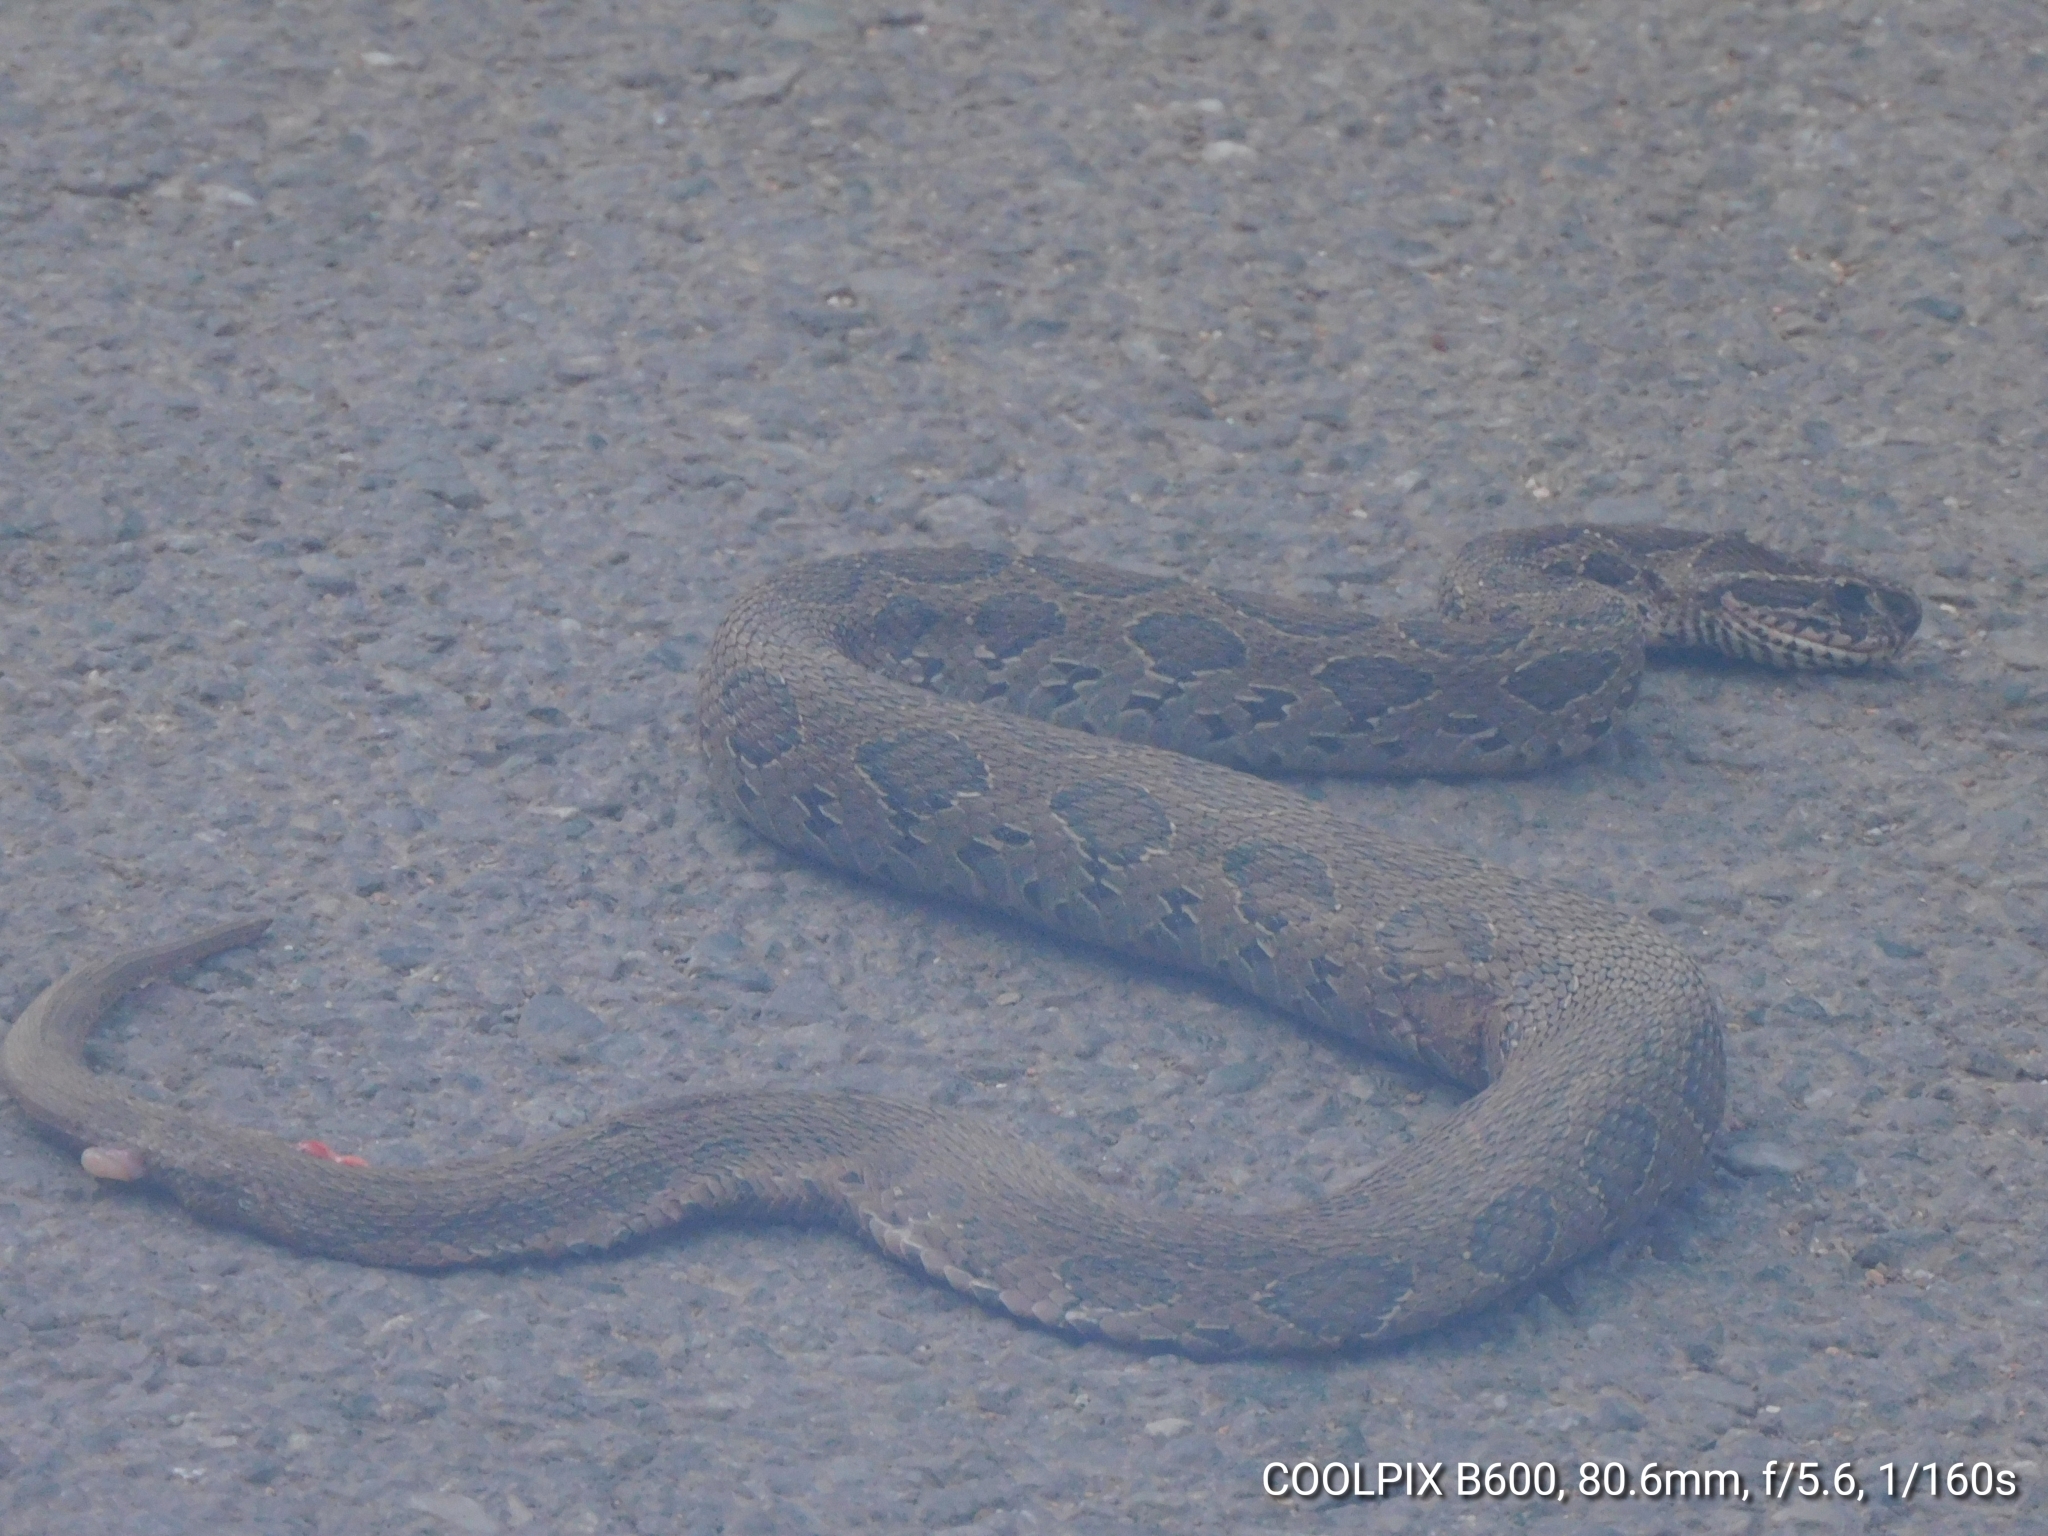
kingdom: Animalia
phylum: Chordata
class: Squamata
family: Viperidae
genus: Daboia
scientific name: Daboia russelii
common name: Western russel’s viper
